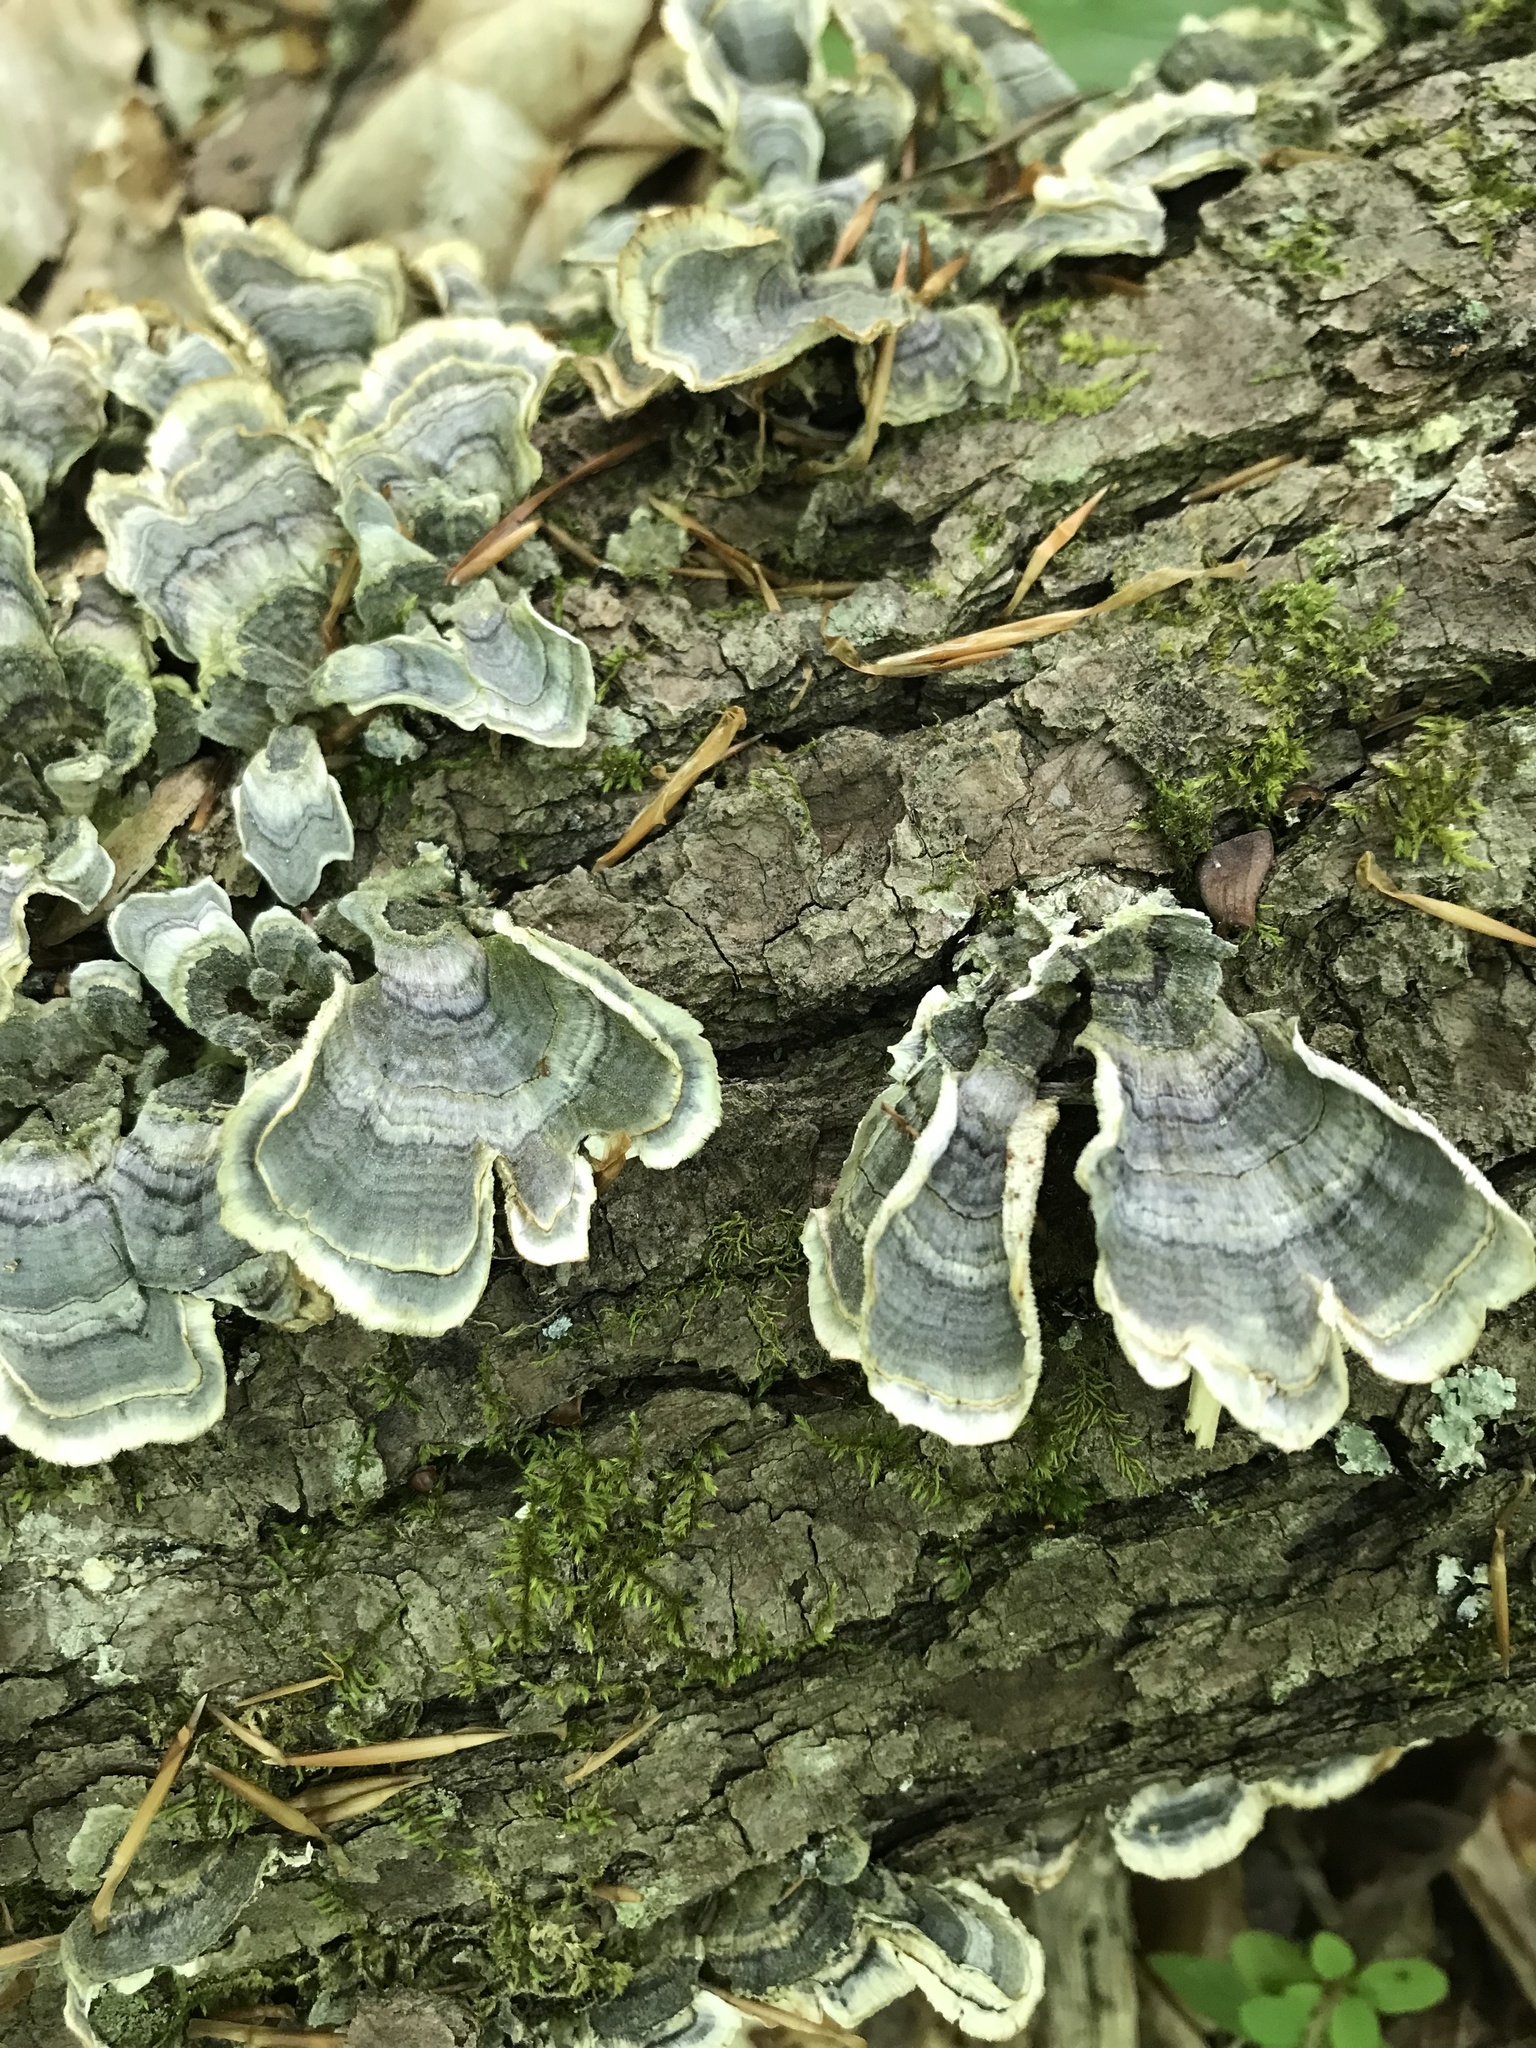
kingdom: Fungi
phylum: Basidiomycota
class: Agaricomycetes
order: Polyporales
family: Polyporaceae
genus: Trametes
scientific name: Trametes versicolor
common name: Turkeytail
